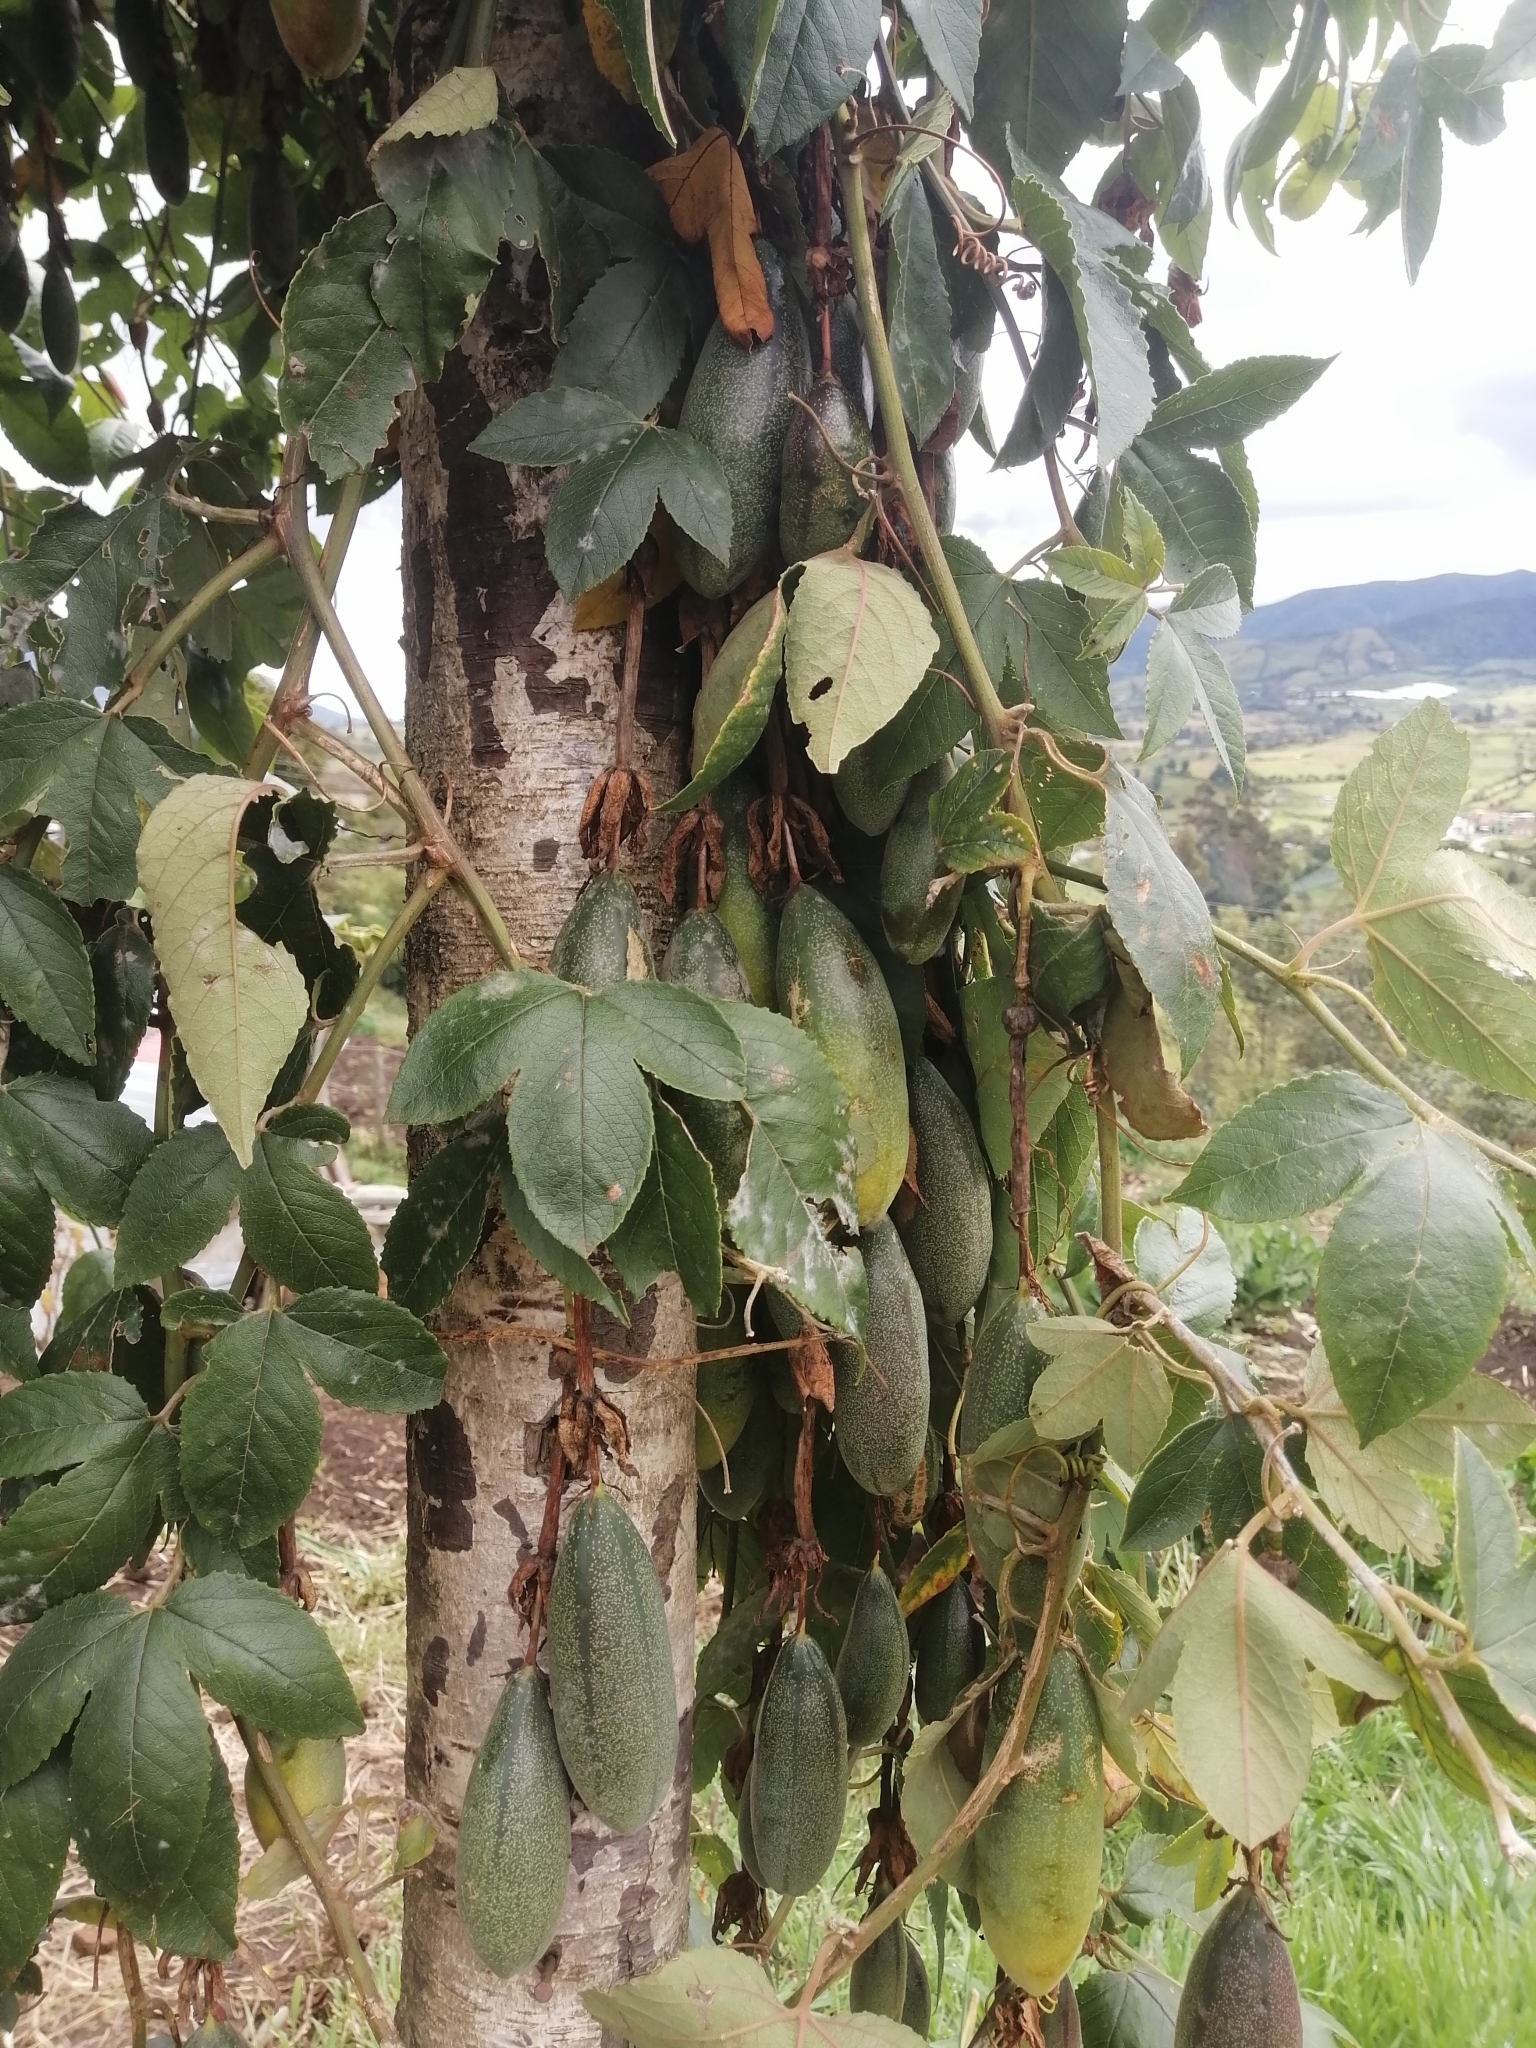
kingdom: Plantae
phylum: Tracheophyta
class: Magnoliopsida
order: Malpighiales
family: Passifloraceae
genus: Passiflora
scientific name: Passiflora tarminiana
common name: Banana poka
